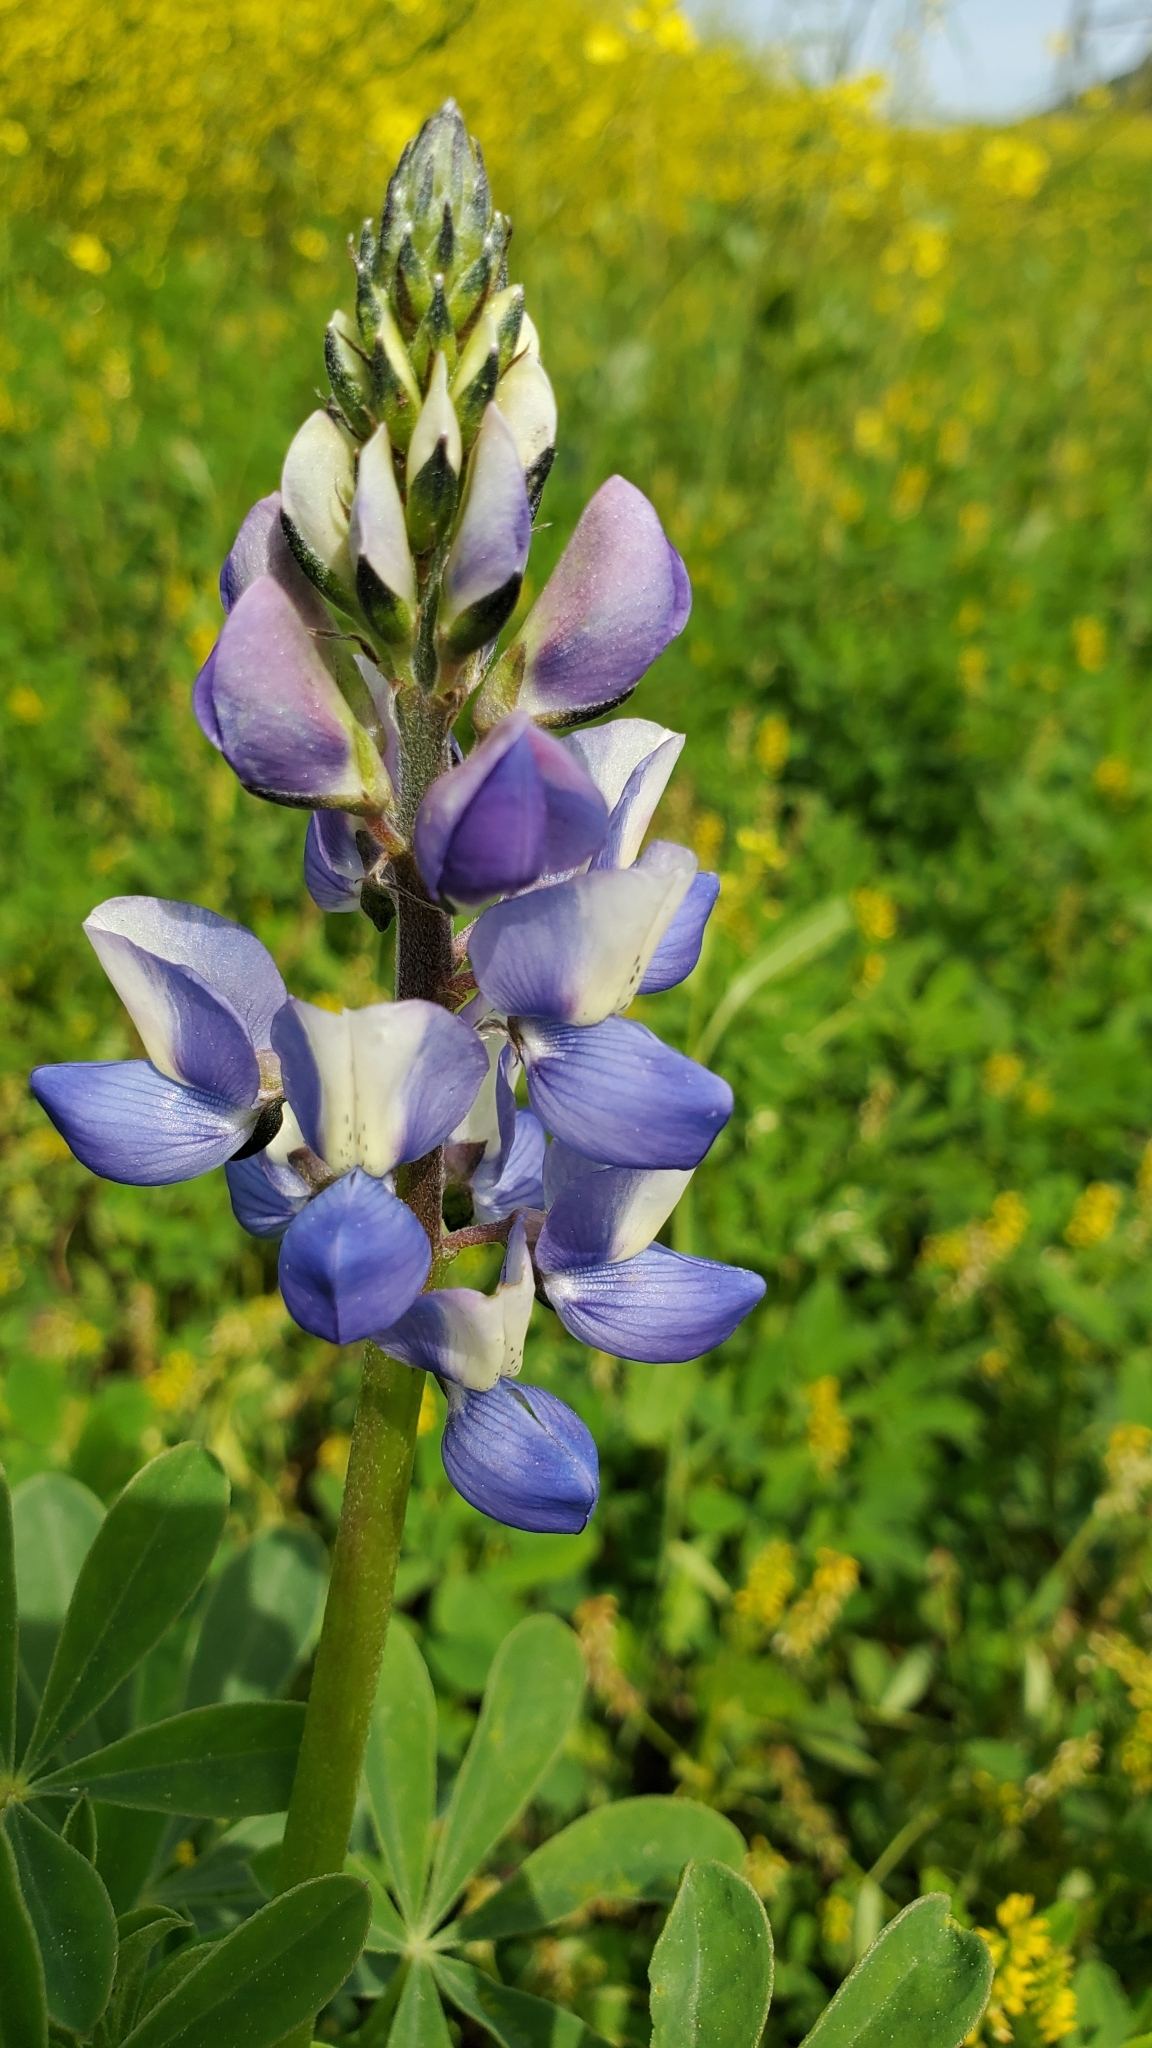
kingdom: Plantae
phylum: Tracheophyta
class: Magnoliopsida
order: Fabales
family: Fabaceae
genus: Lupinus
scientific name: Lupinus succulentus
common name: Arroyo lupine
